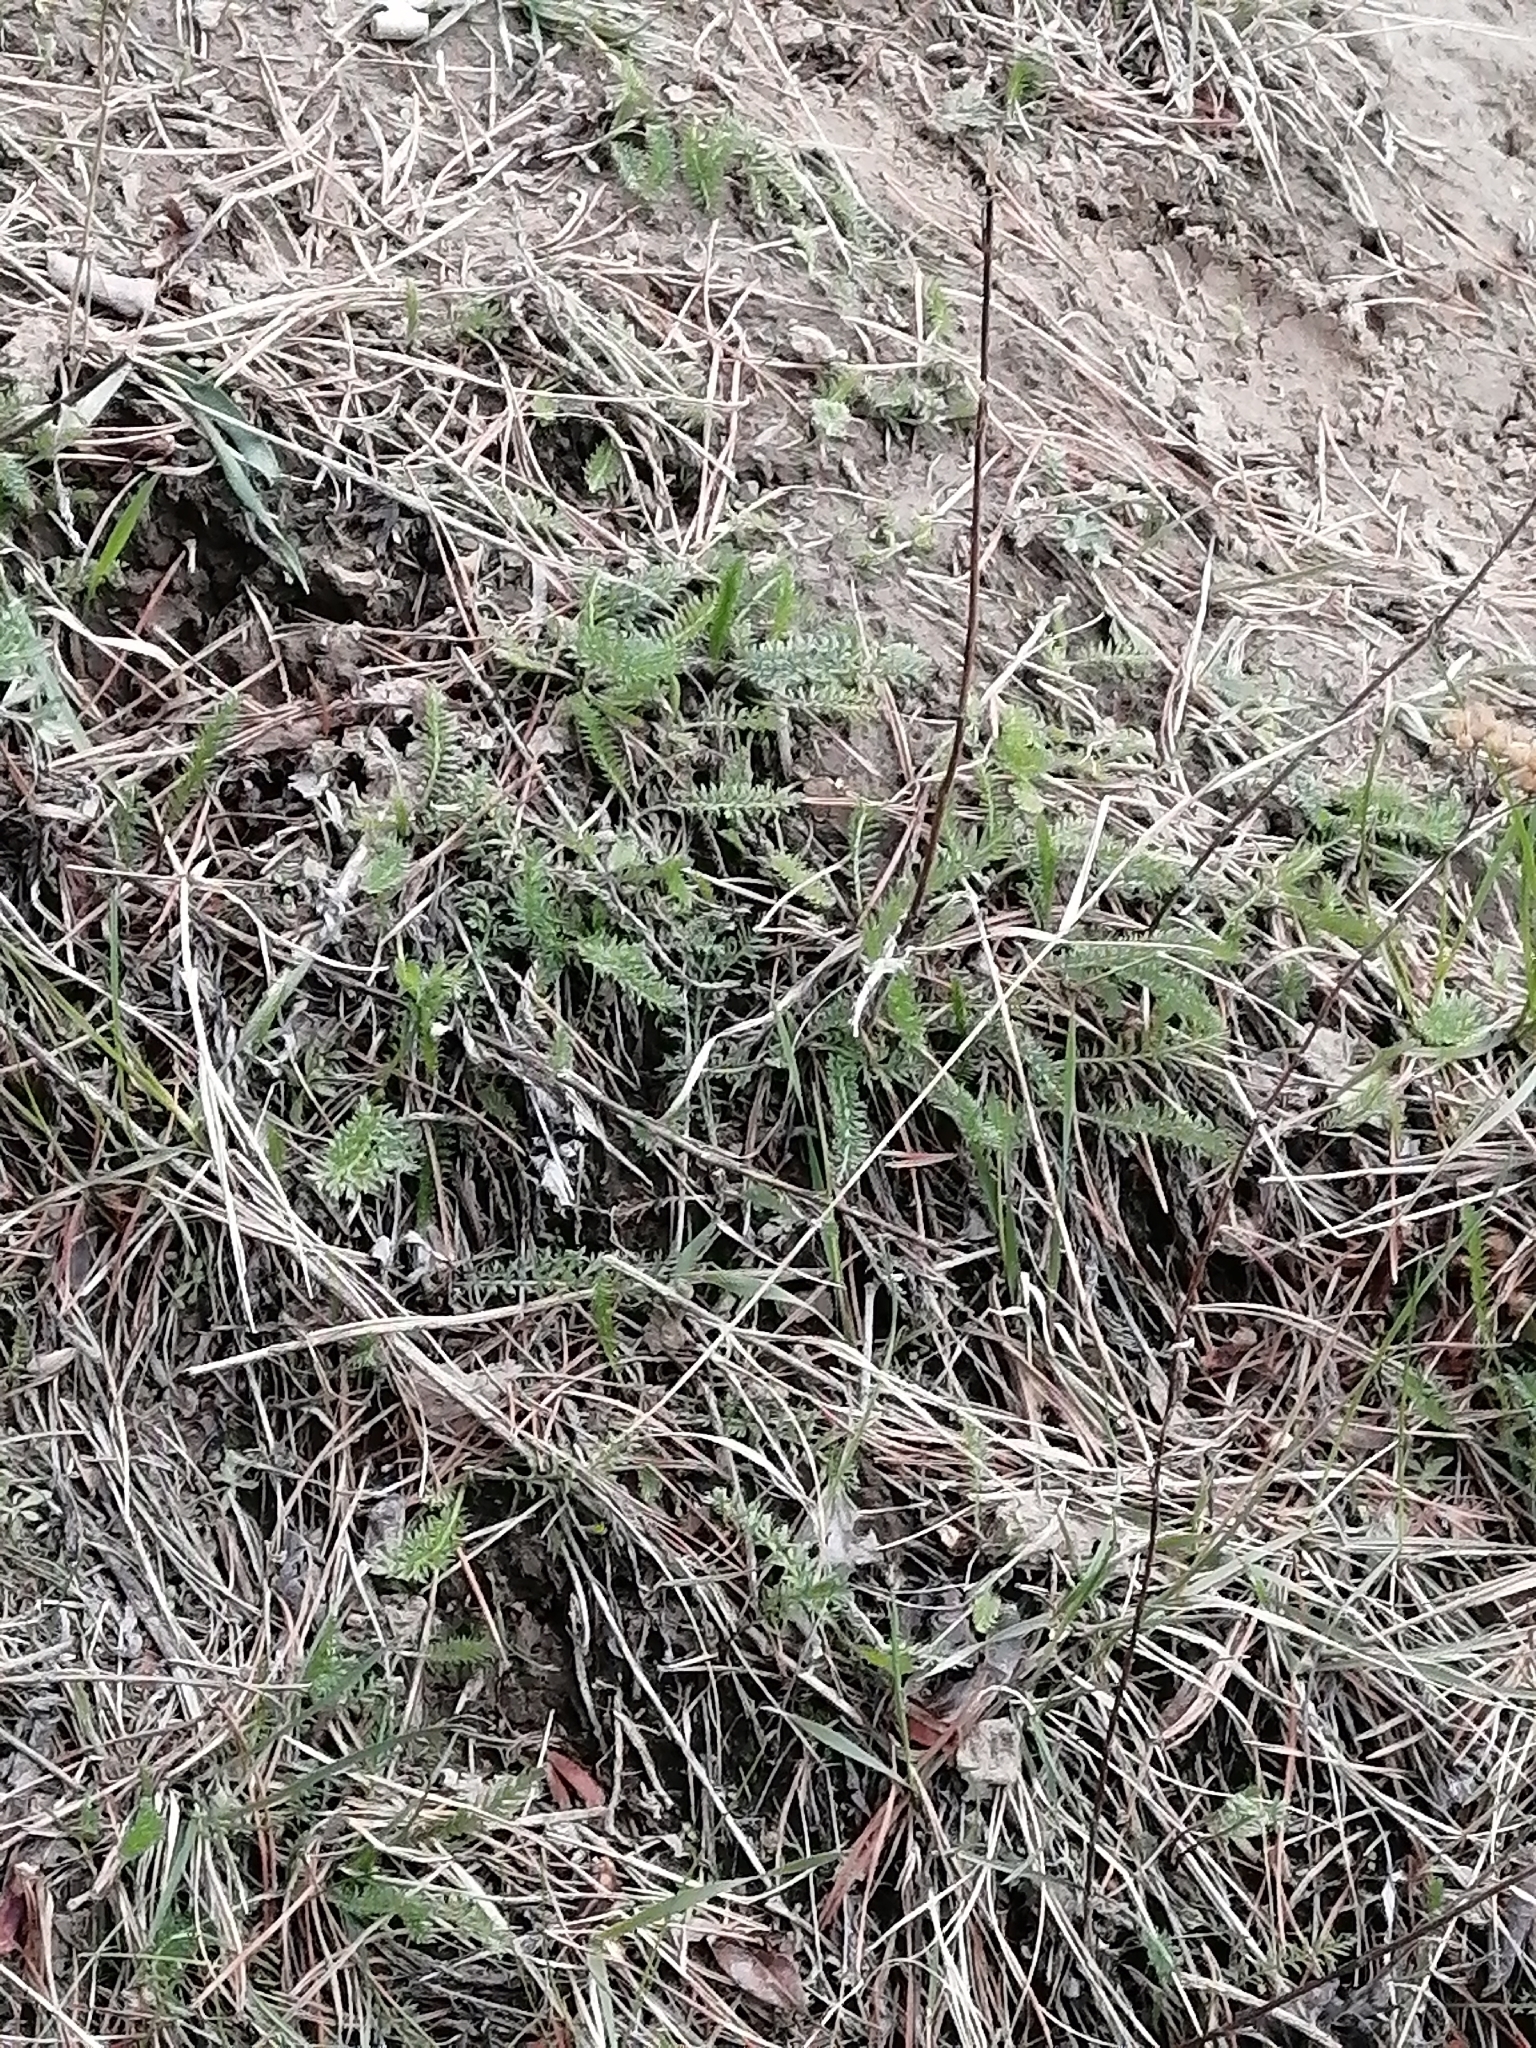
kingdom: Plantae
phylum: Tracheophyta
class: Magnoliopsida
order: Asterales
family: Asteraceae
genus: Achillea
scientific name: Achillea millefolium
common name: Yarrow
